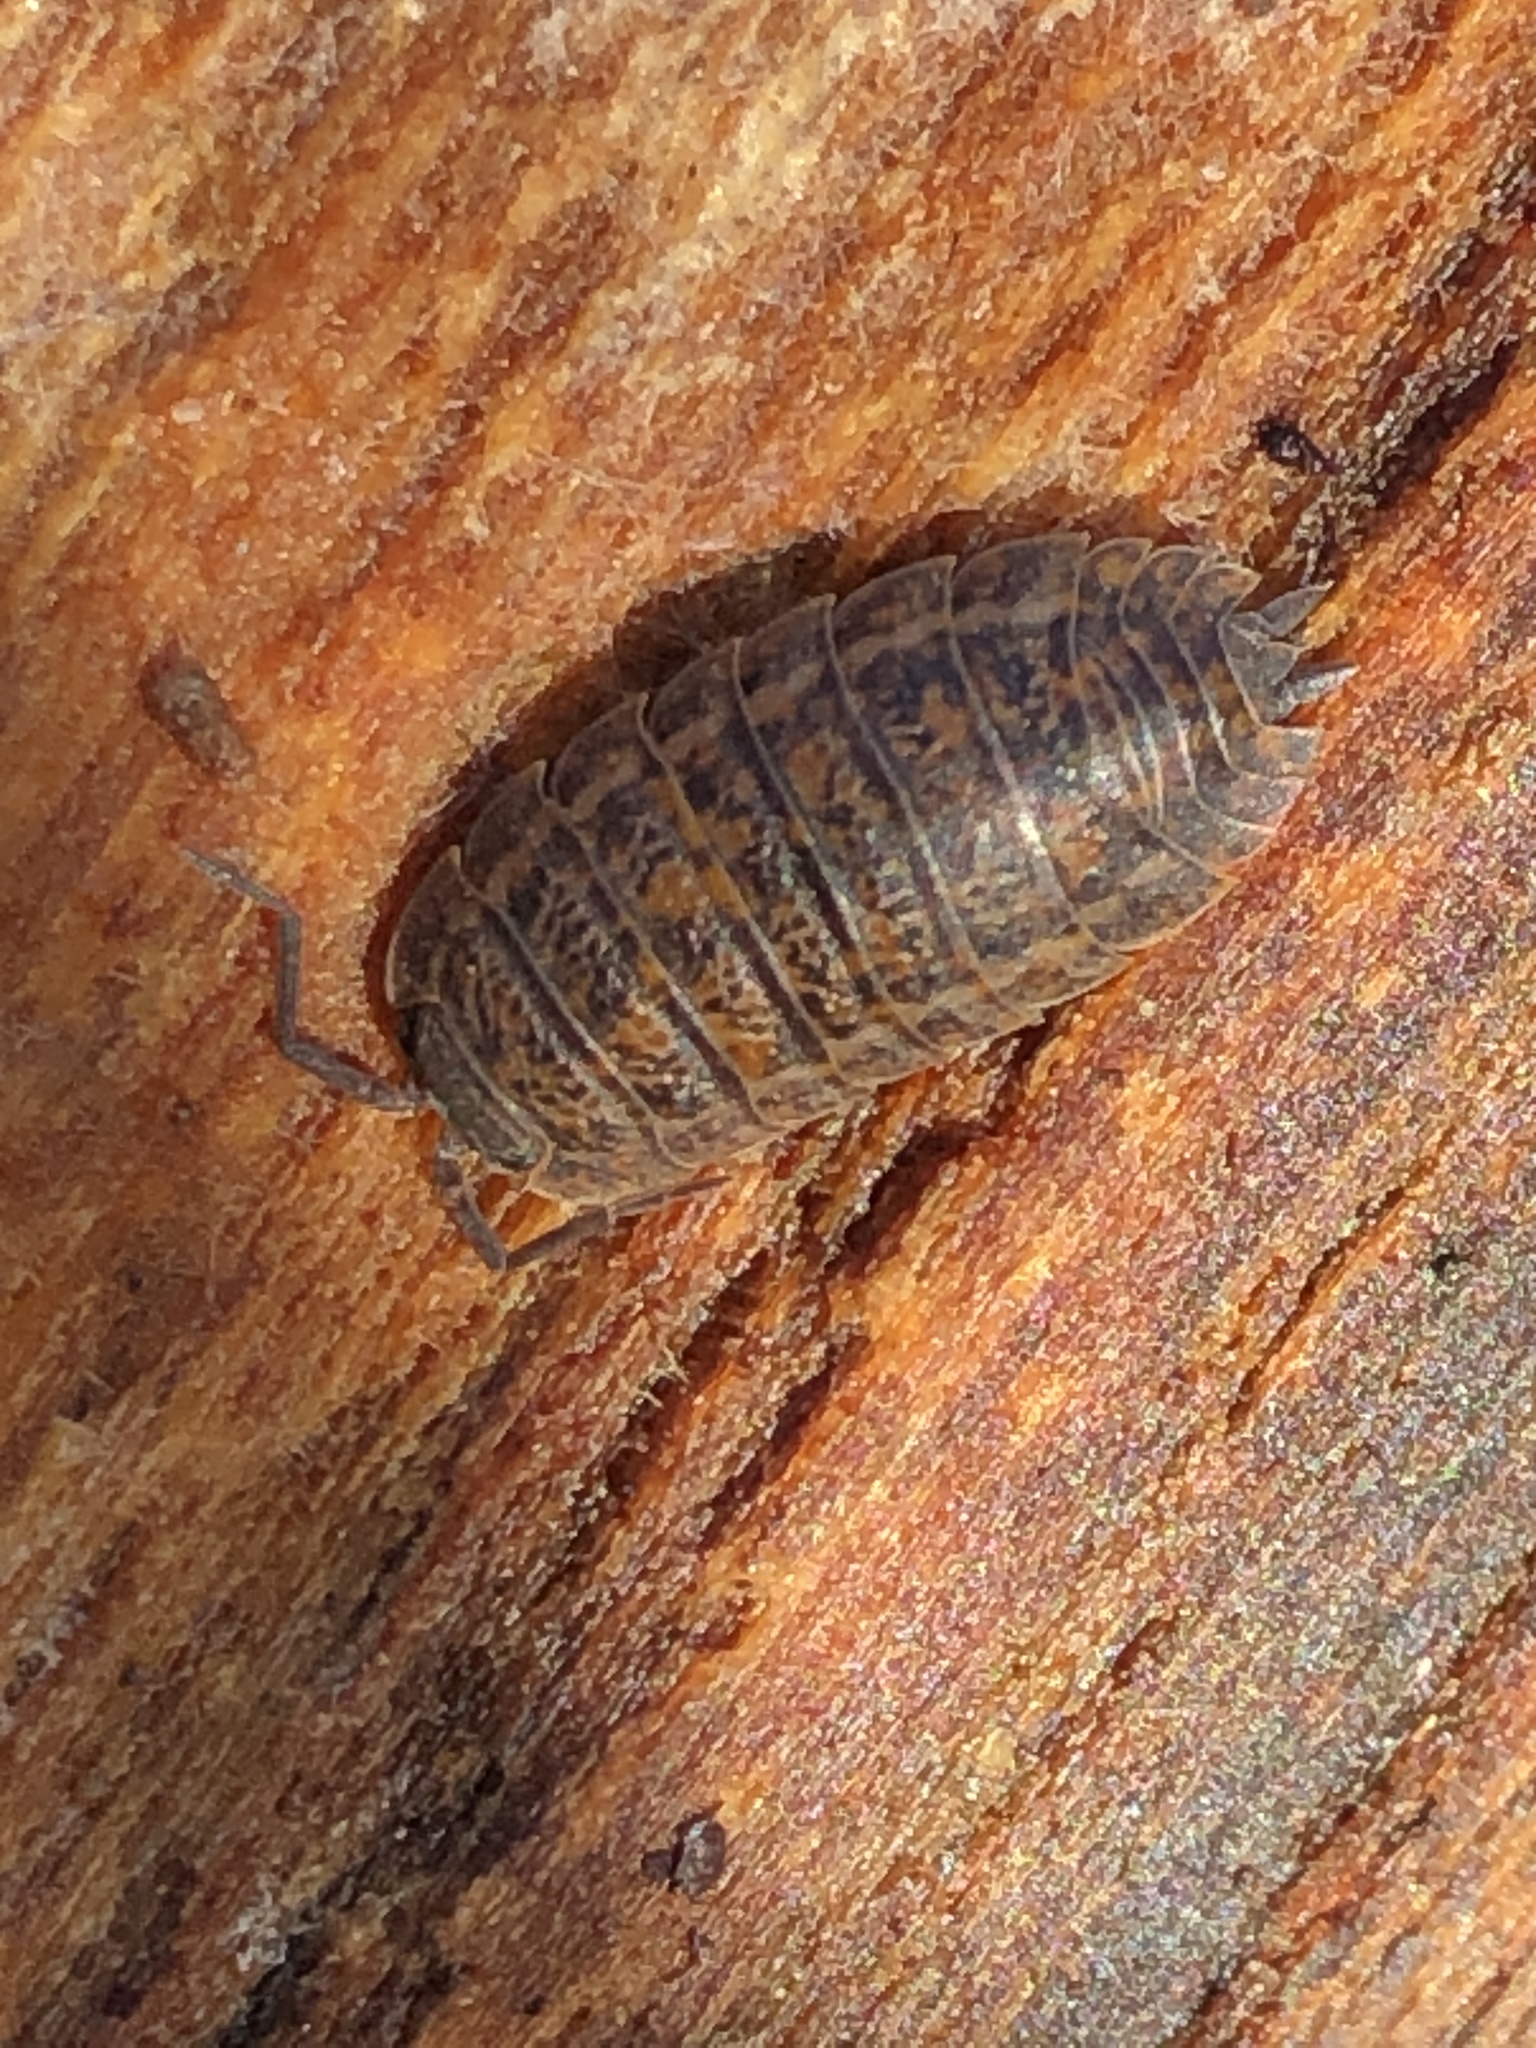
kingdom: Animalia
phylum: Arthropoda
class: Malacostraca
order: Isopoda
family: Trachelipodidae
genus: Trachelipus
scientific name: Trachelipus rathkii
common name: Isopod
